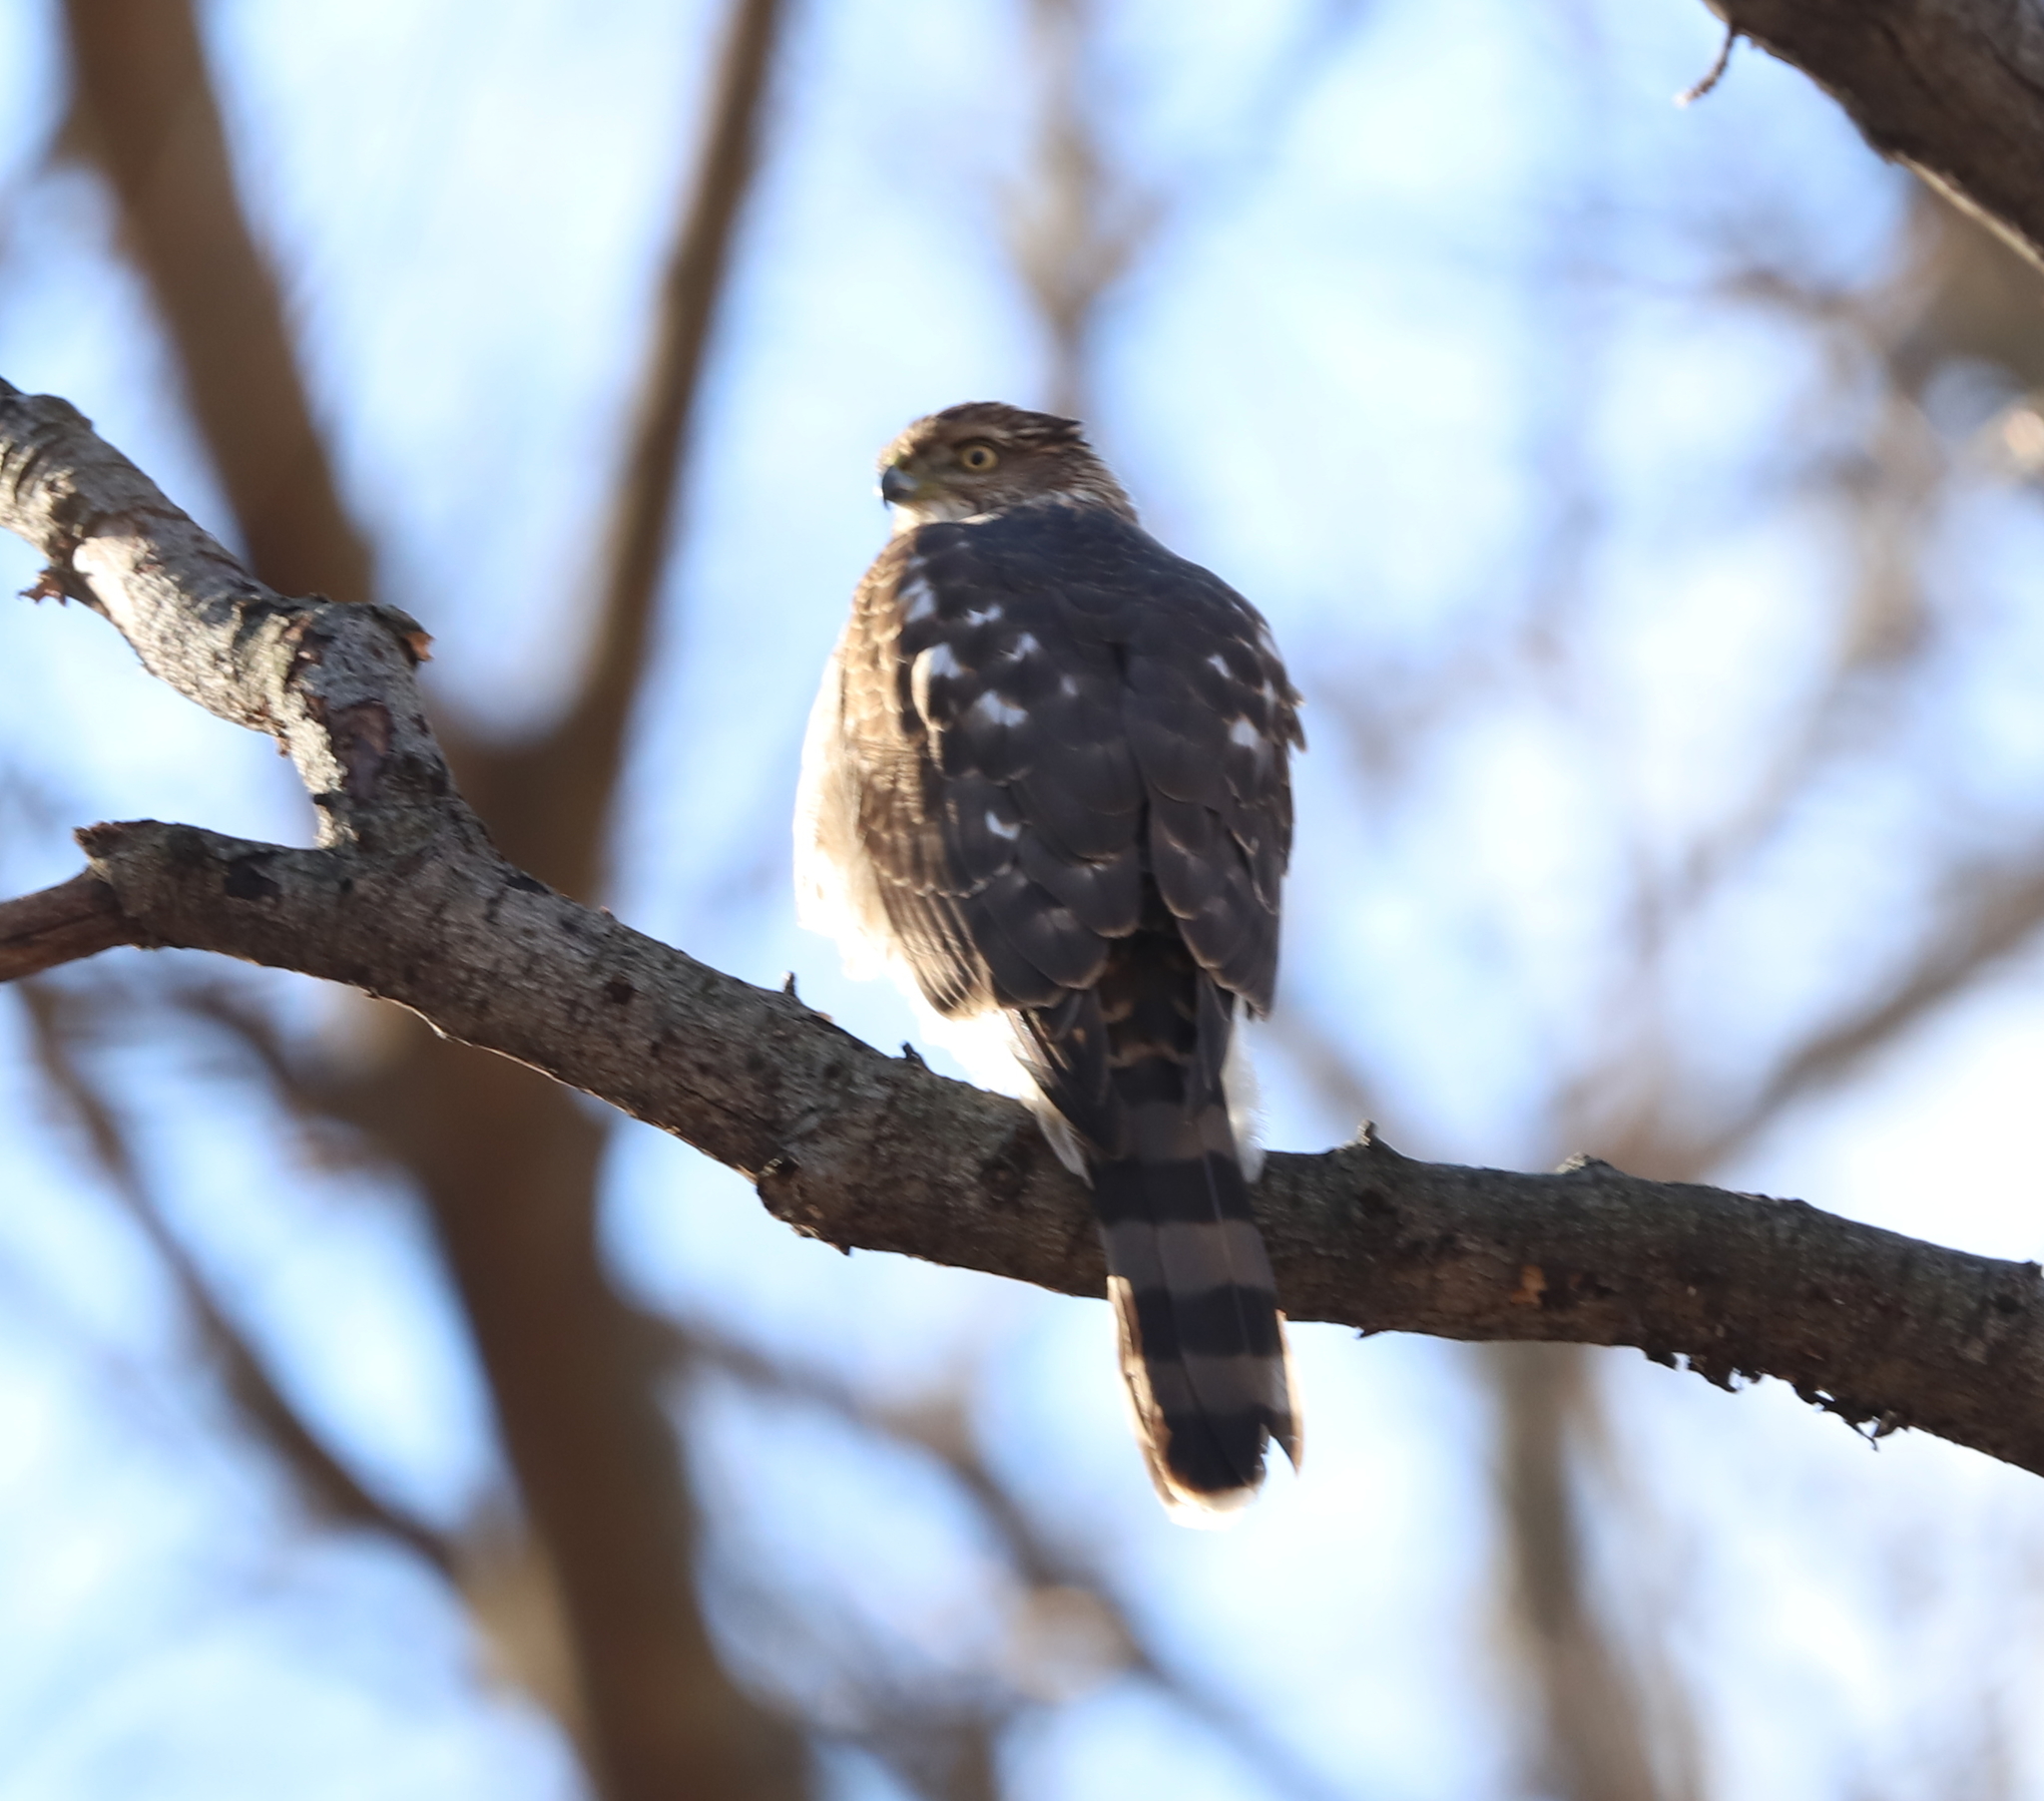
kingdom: Animalia
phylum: Chordata
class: Aves
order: Accipitriformes
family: Accipitridae
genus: Accipiter
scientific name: Accipiter cooperii
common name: Cooper's hawk
